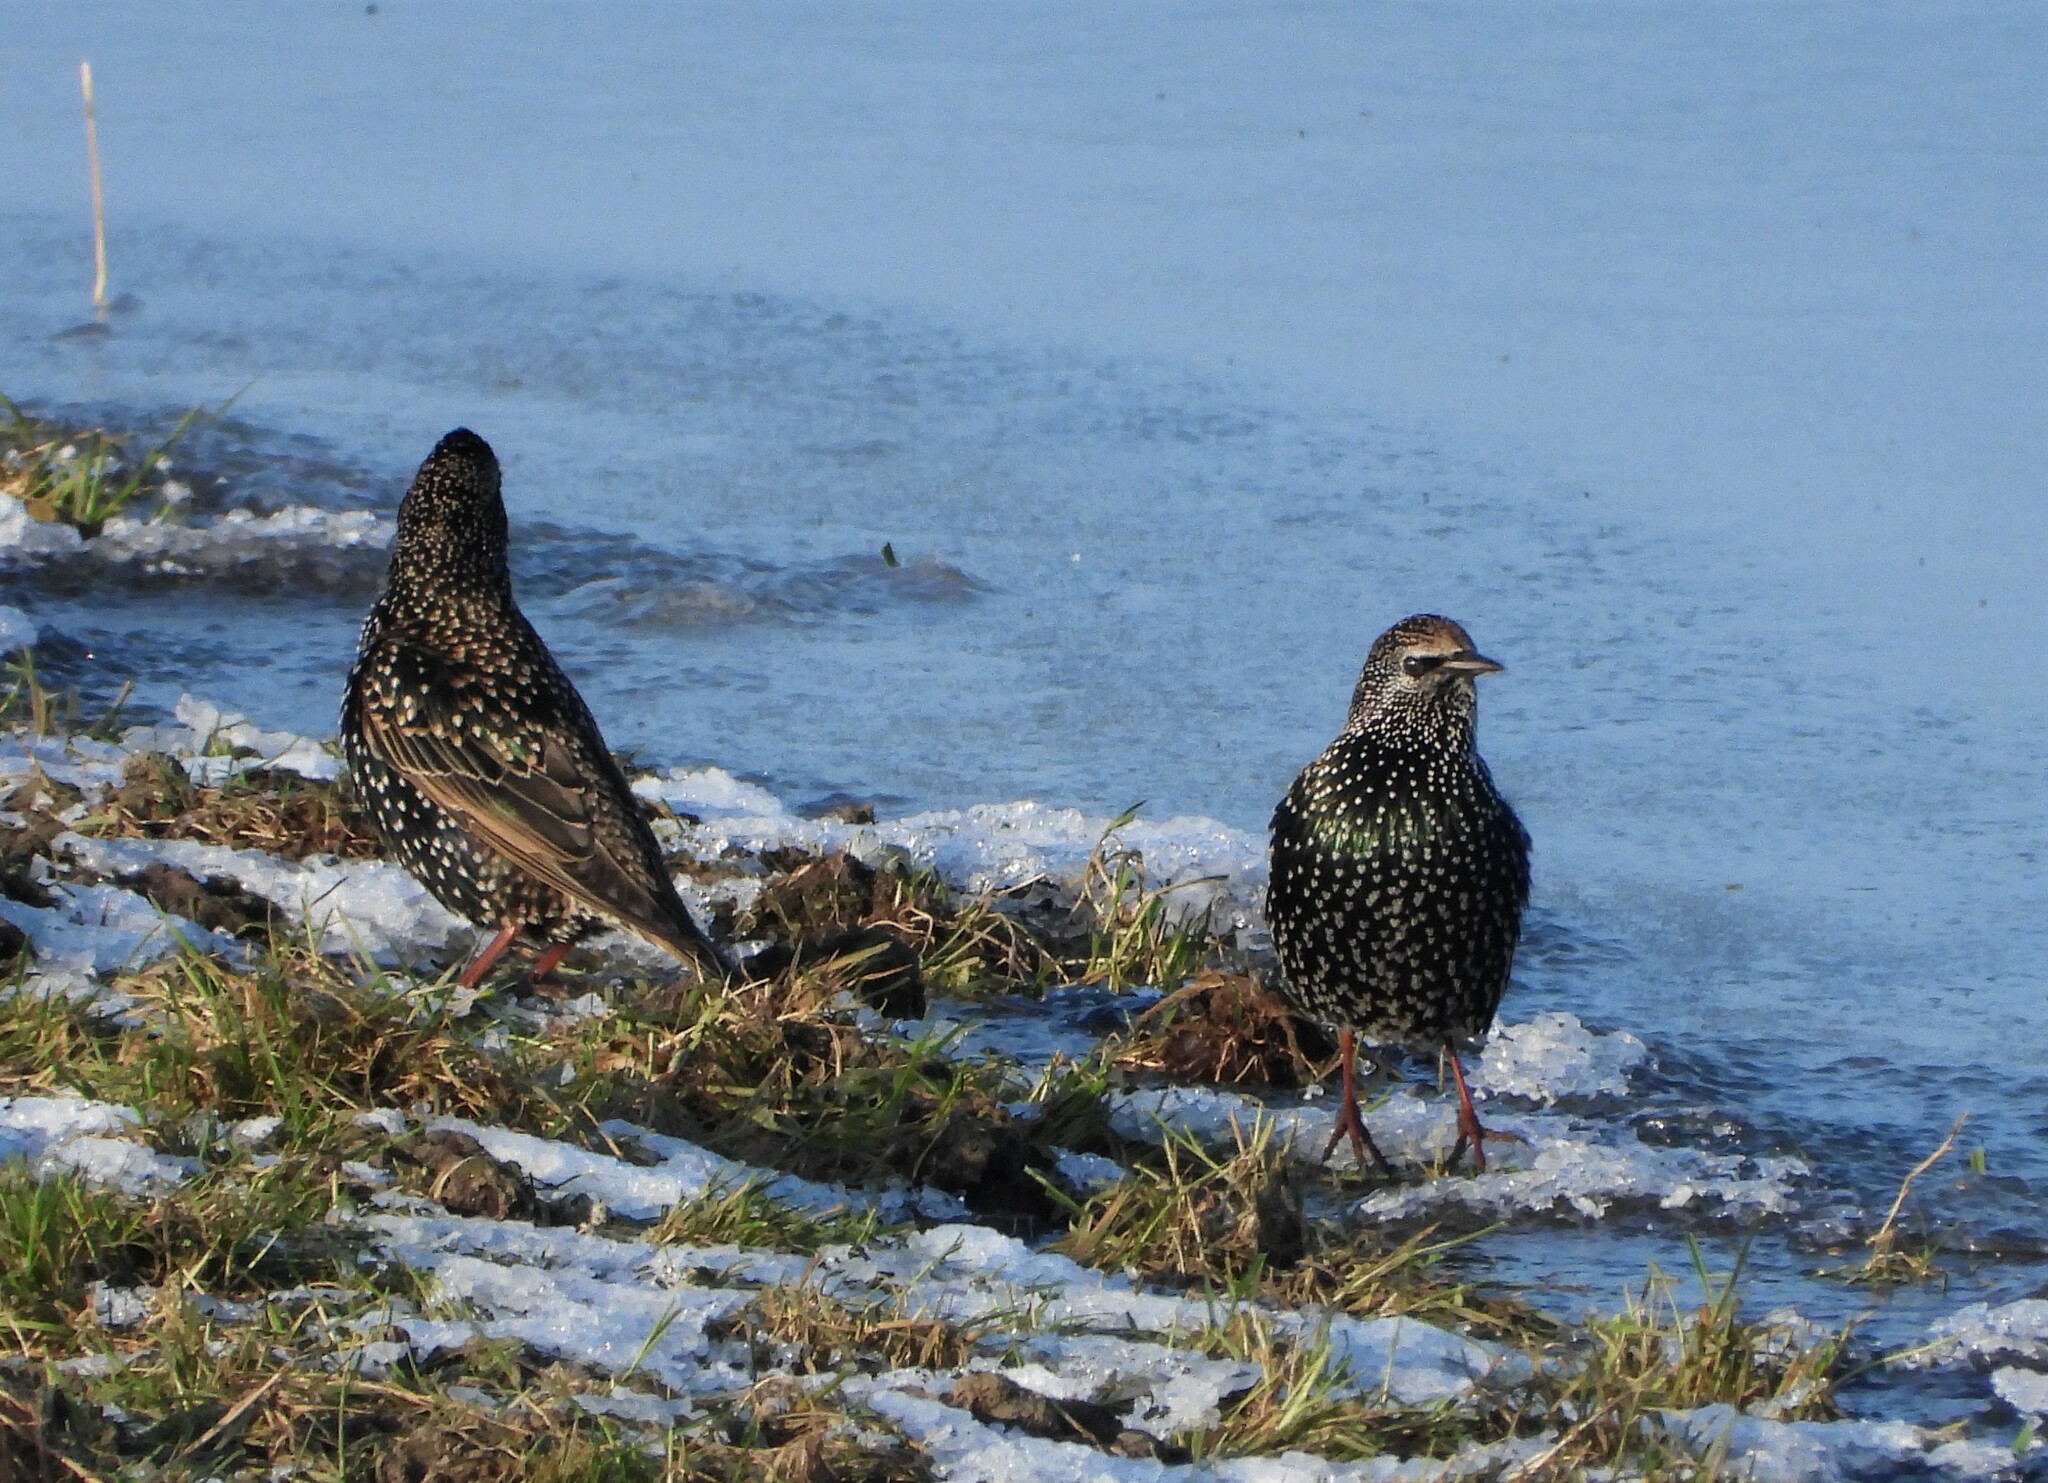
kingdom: Animalia
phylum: Chordata
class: Aves
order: Passeriformes
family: Sturnidae
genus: Sturnus
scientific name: Sturnus vulgaris
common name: Common starling
